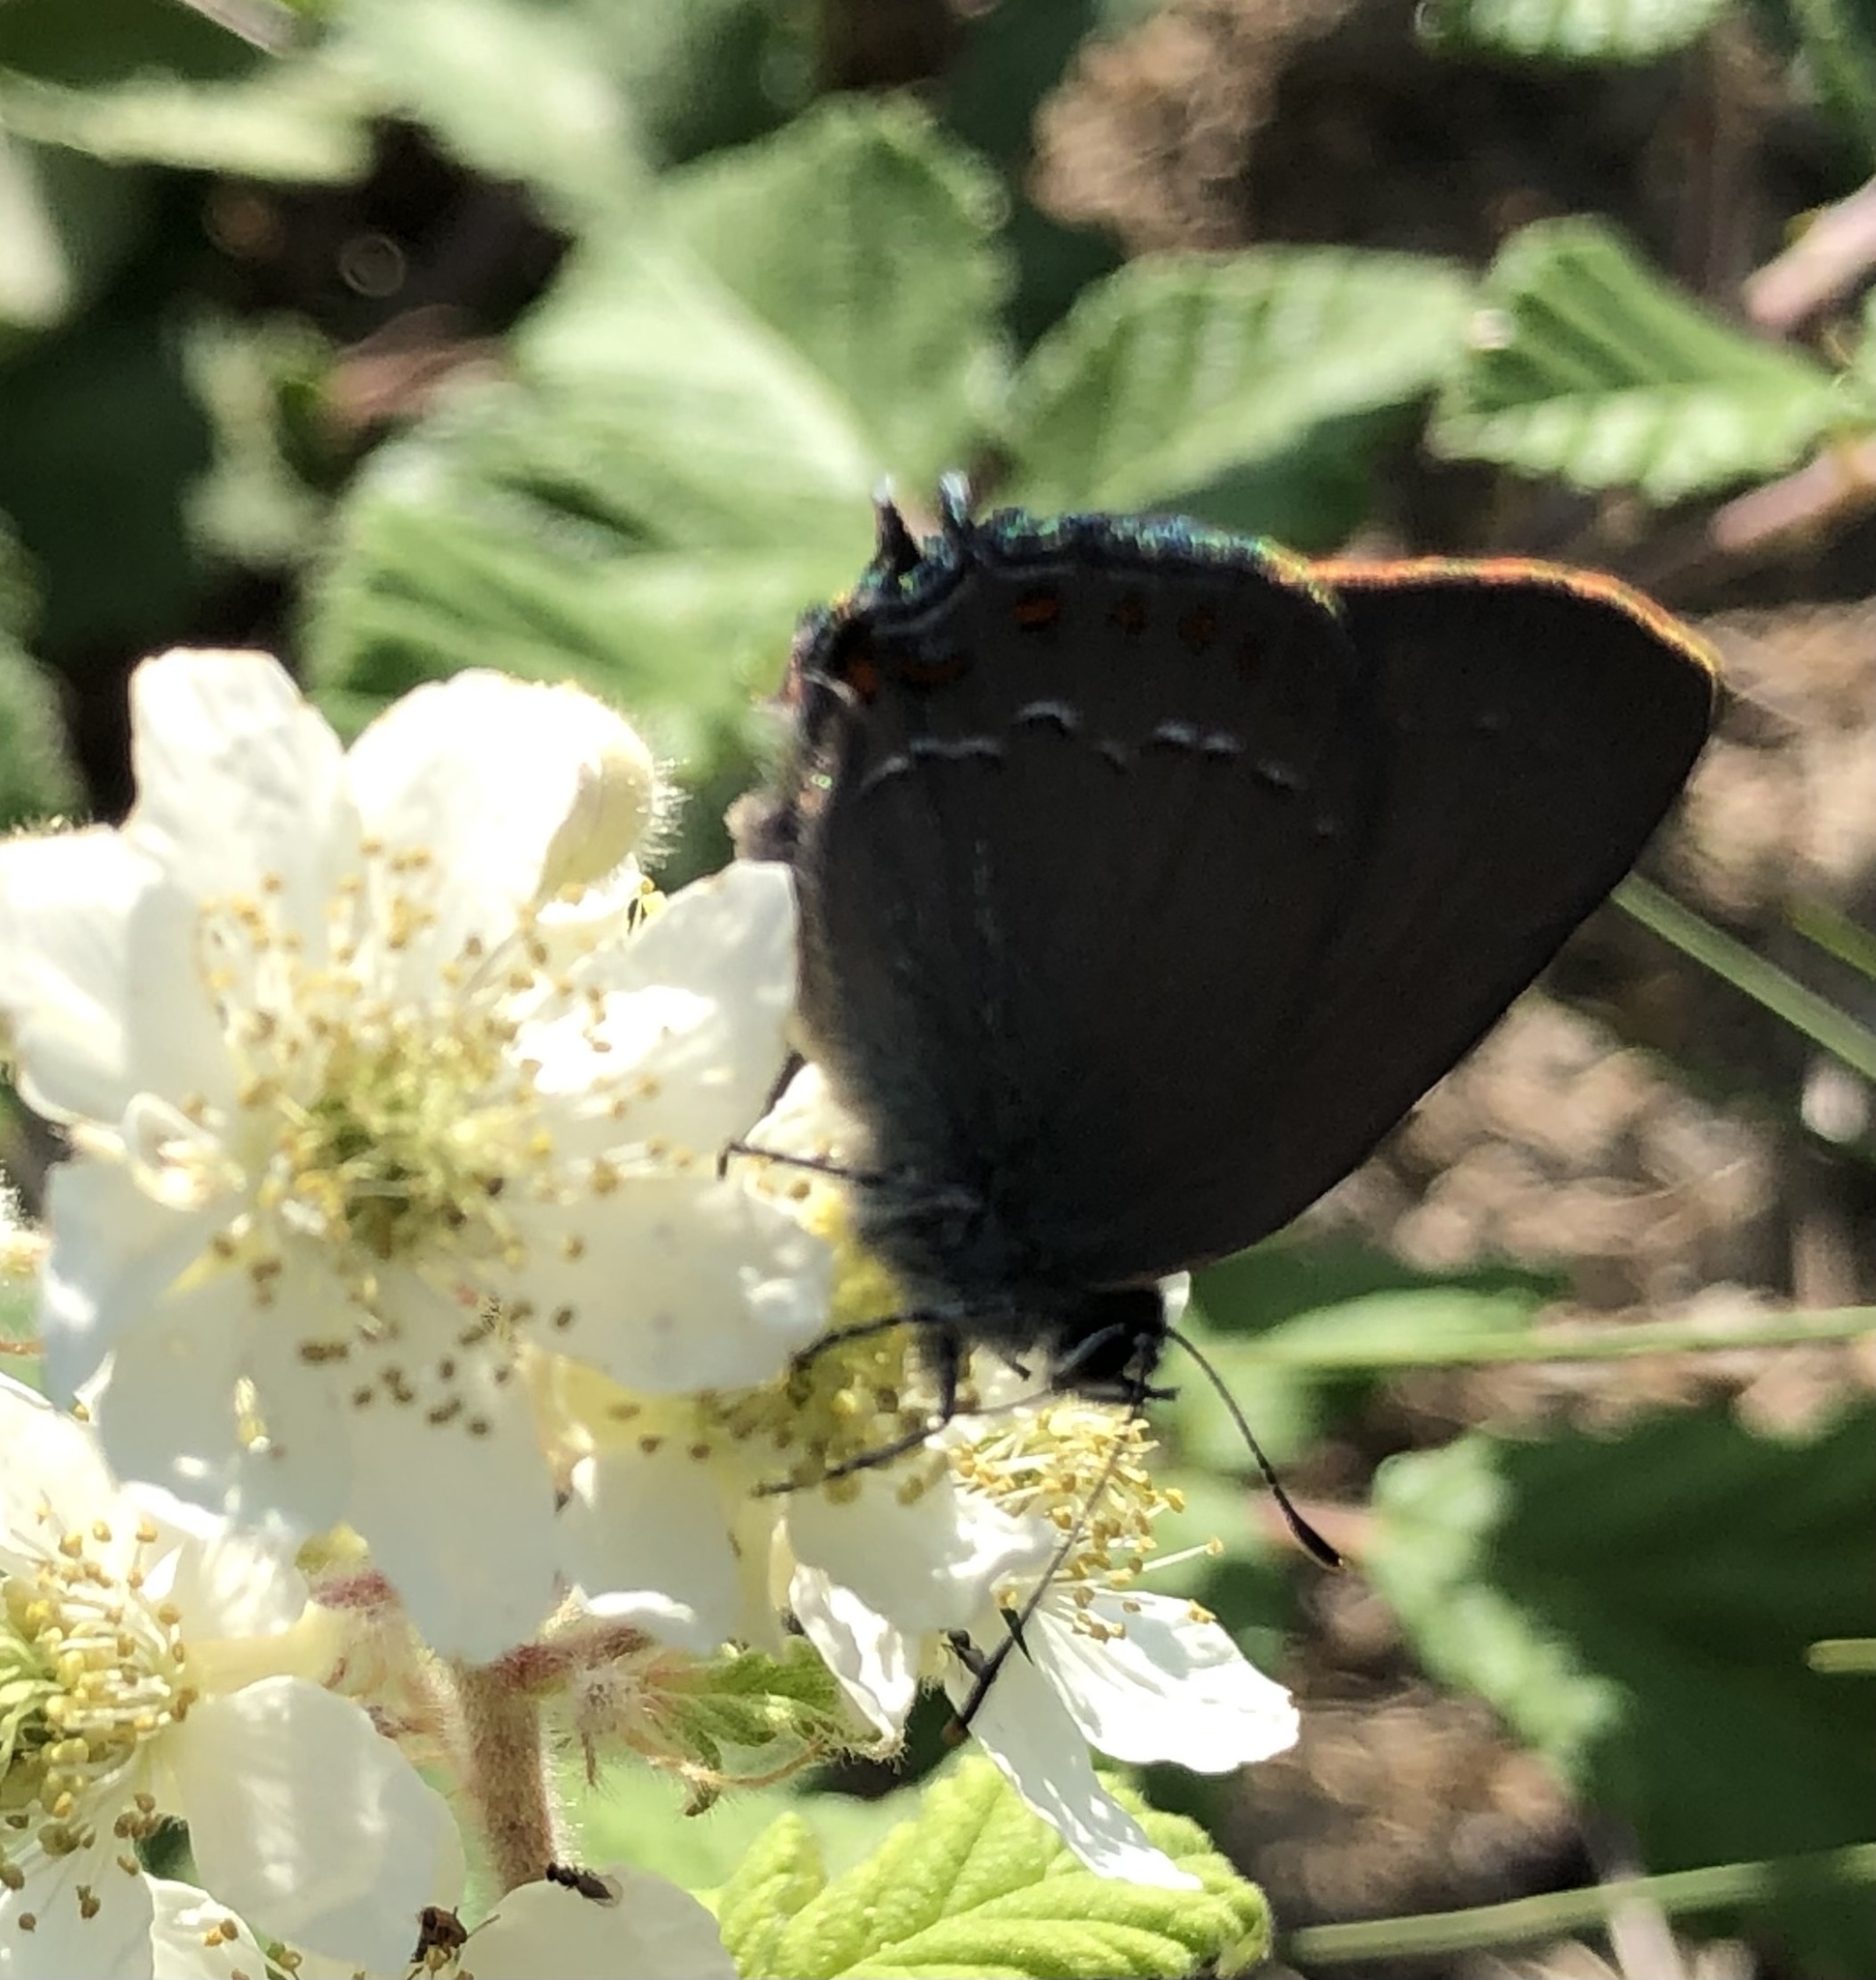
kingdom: Animalia
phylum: Arthropoda
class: Insecta
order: Lepidoptera
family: Lycaenidae
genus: Fixsenia
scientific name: Fixsenia esculi
